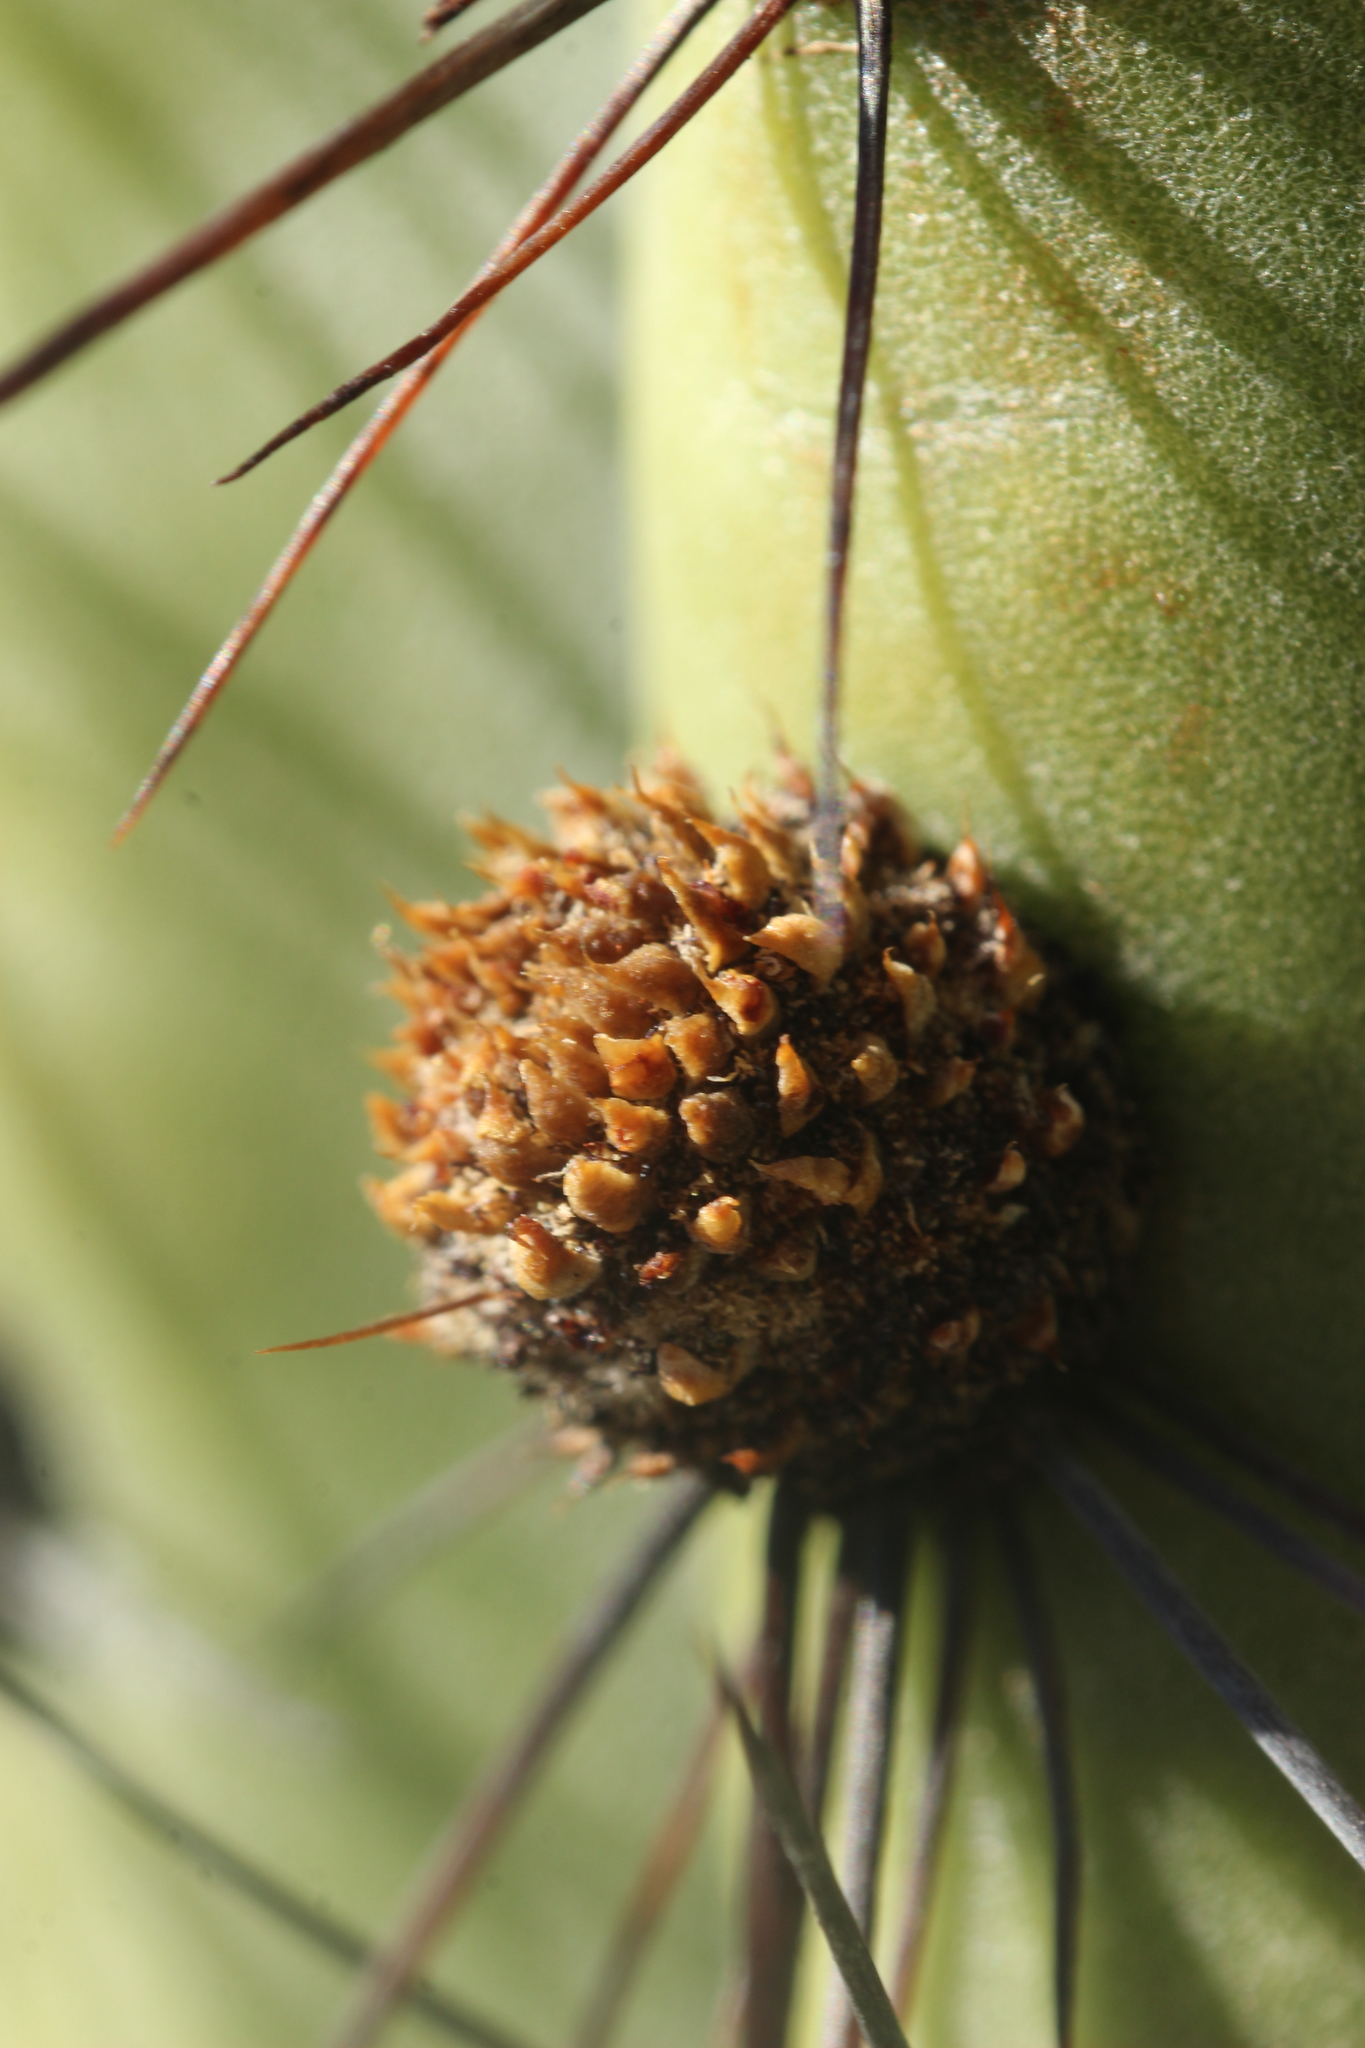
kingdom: Plantae
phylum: Tracheophyta
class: Magnoliopsida
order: Caryophyllales
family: Cactaceae
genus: Stenocereus
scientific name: Stenocereus thurberi
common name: Organ pipe cactus
